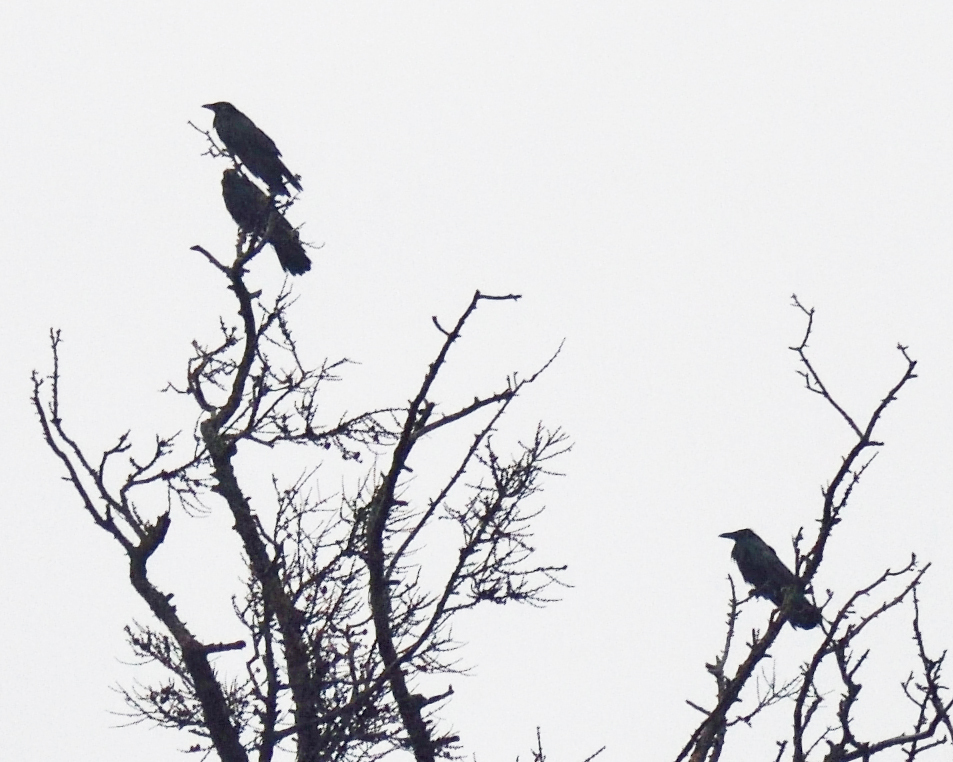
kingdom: Animalia
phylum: Chordata
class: Aves
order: Passeriformes
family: Corvidae
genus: Corvus
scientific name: Corvus corone
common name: Carrion crow
